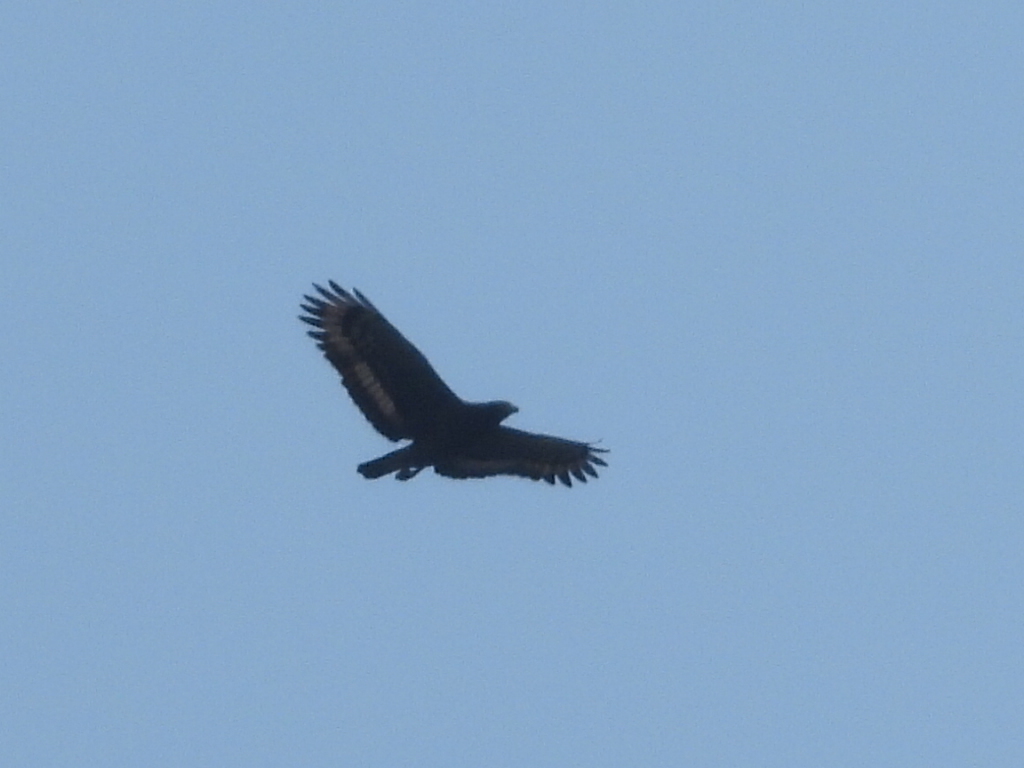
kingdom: Animalia
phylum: Chordata
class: Aves
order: Accipitriformes
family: Accipitridae
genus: Spilornis
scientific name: Spilornis cheela
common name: Crested serpent eagle
